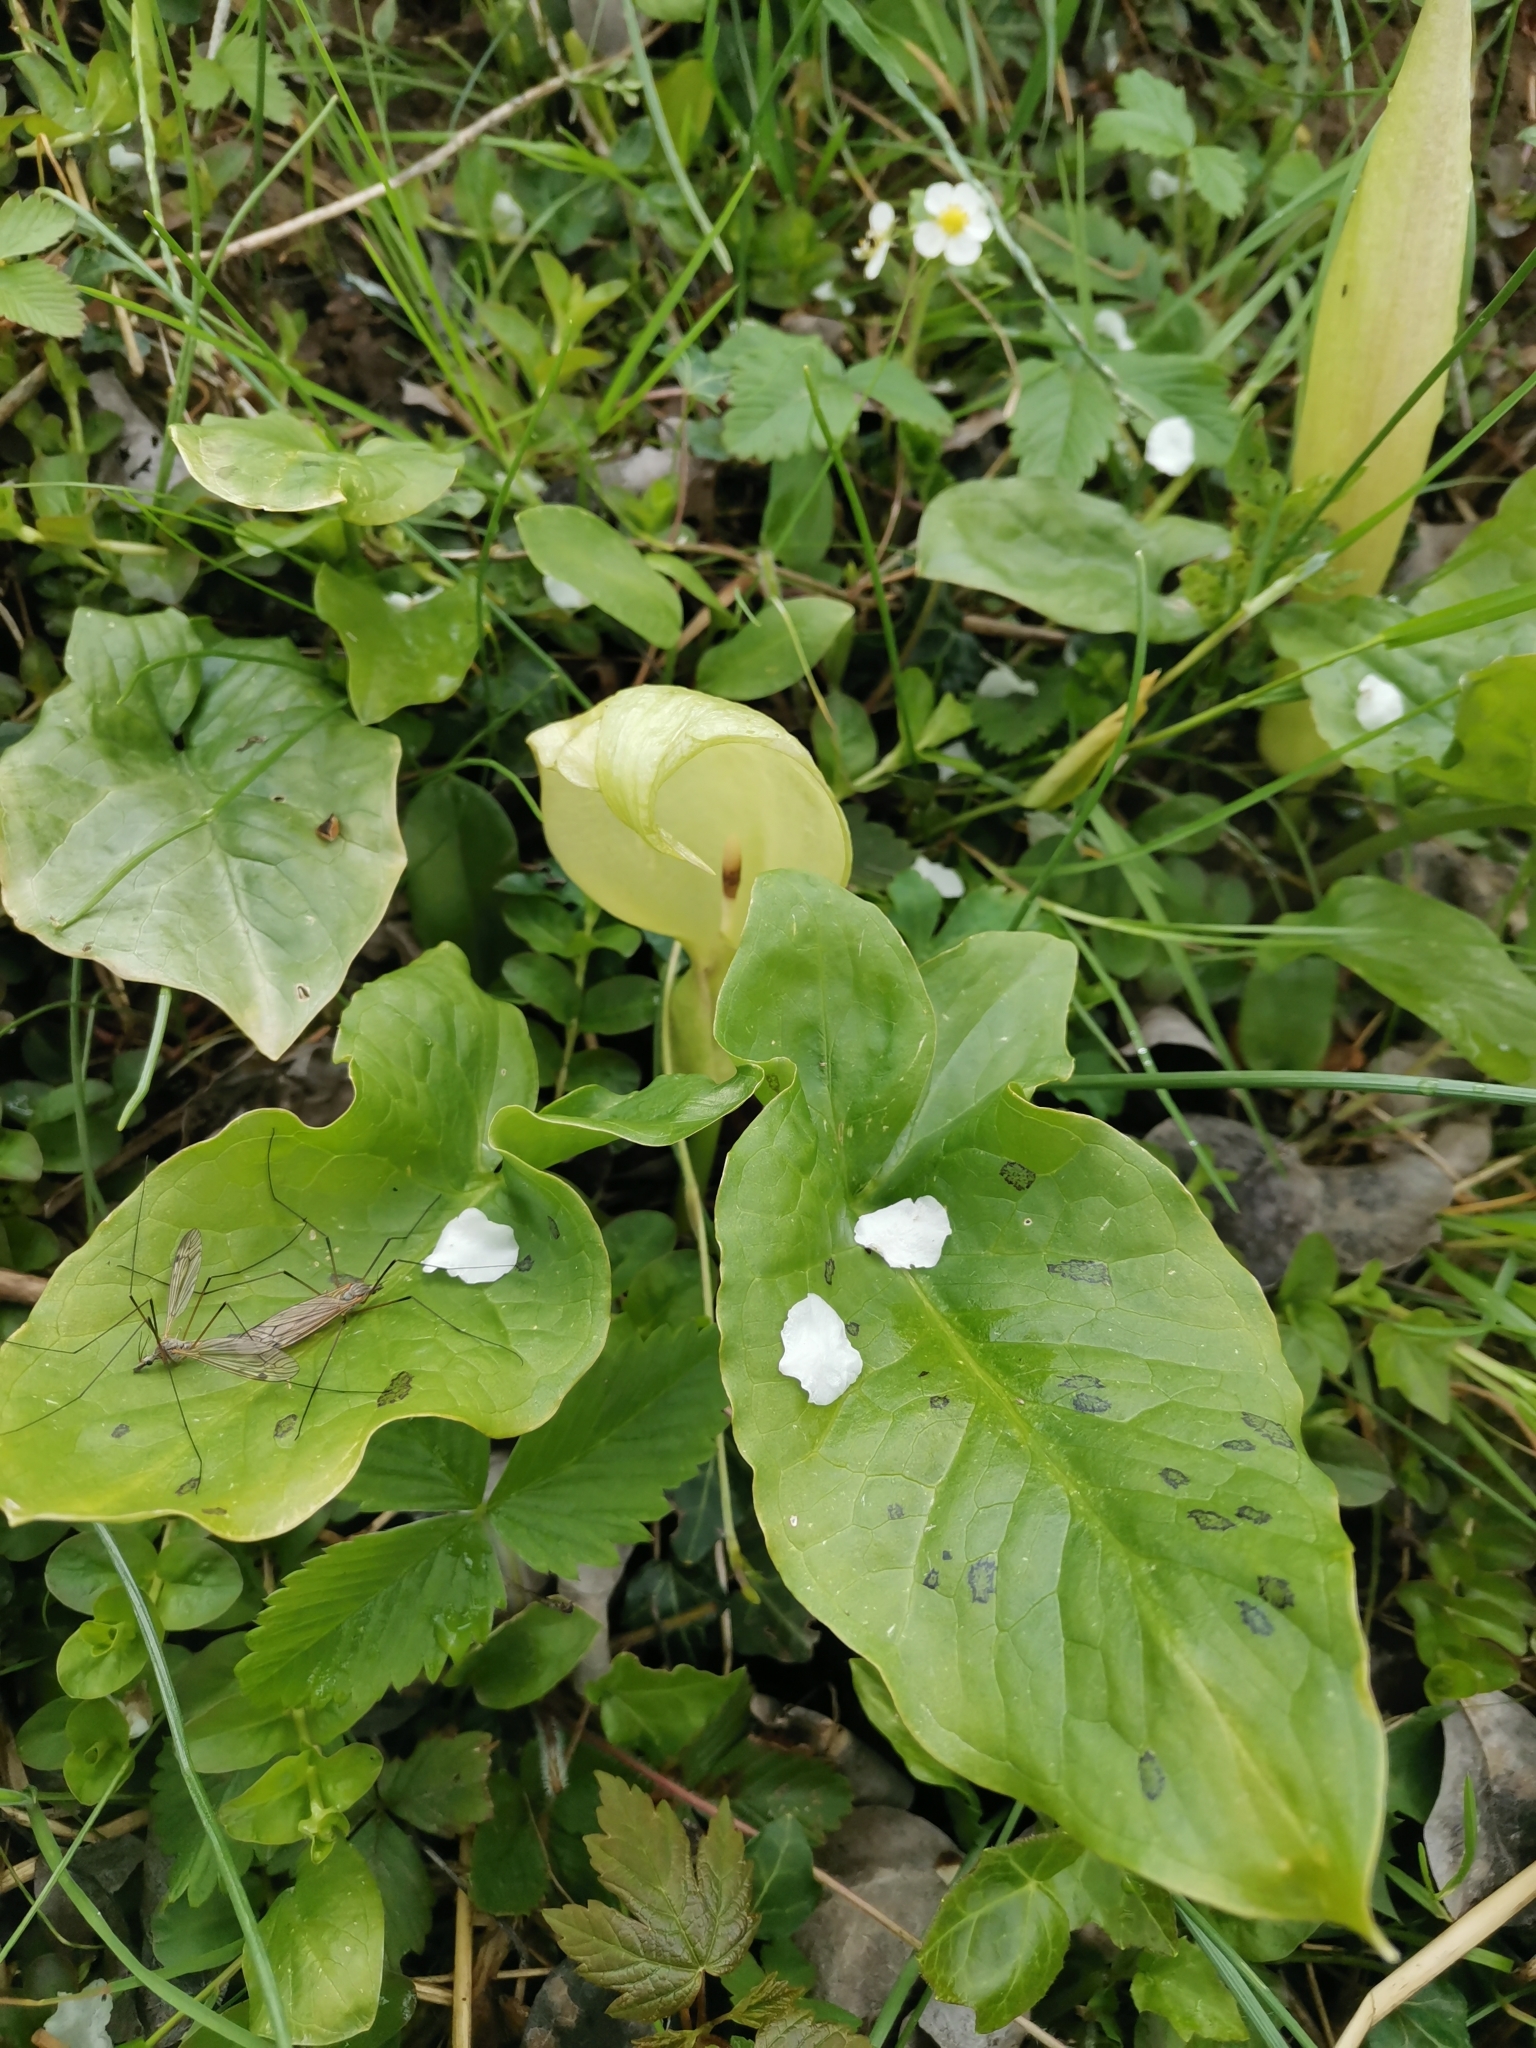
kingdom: Plantae
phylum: Tracheophyta
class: Liliopsida
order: Alismatales
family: Araceae
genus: Arum
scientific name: Arum maculatum
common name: Lords-and-ladies
